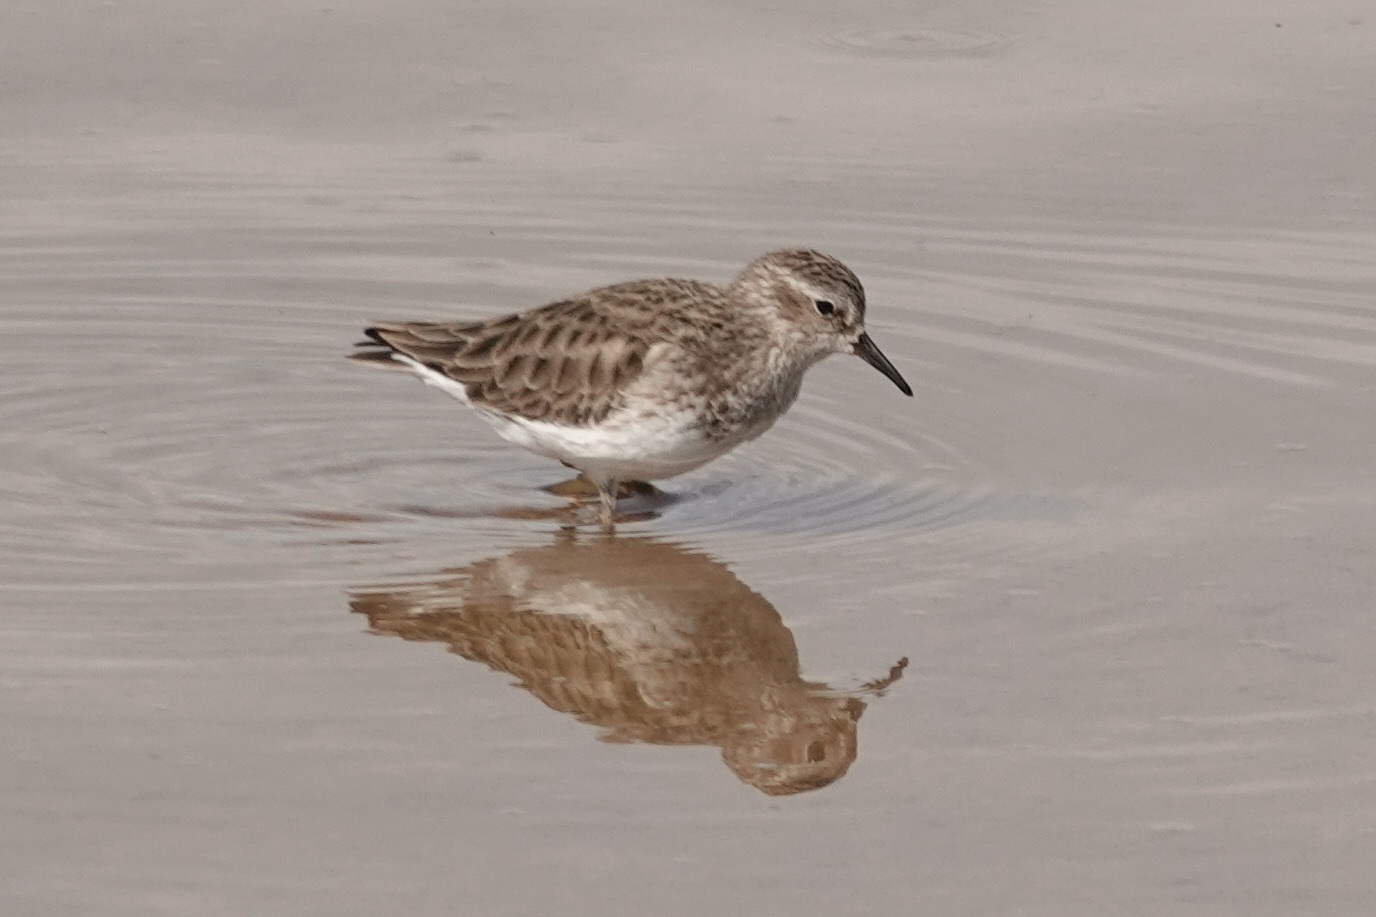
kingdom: Animalia
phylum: Chordata
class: Aves
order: Charadriiformes
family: Scolopacidae
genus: Calidris
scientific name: Calidris minutilla
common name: Least sandpiper
